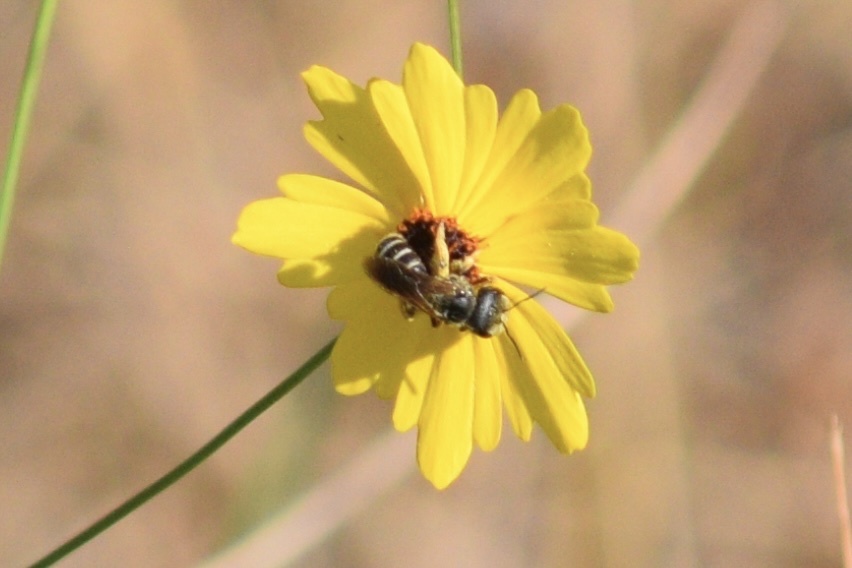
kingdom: Animalia
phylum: Arthropoda
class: Insecta
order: Hymenoptera
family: Halictidae
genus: Halictus
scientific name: Halictus poeyi
